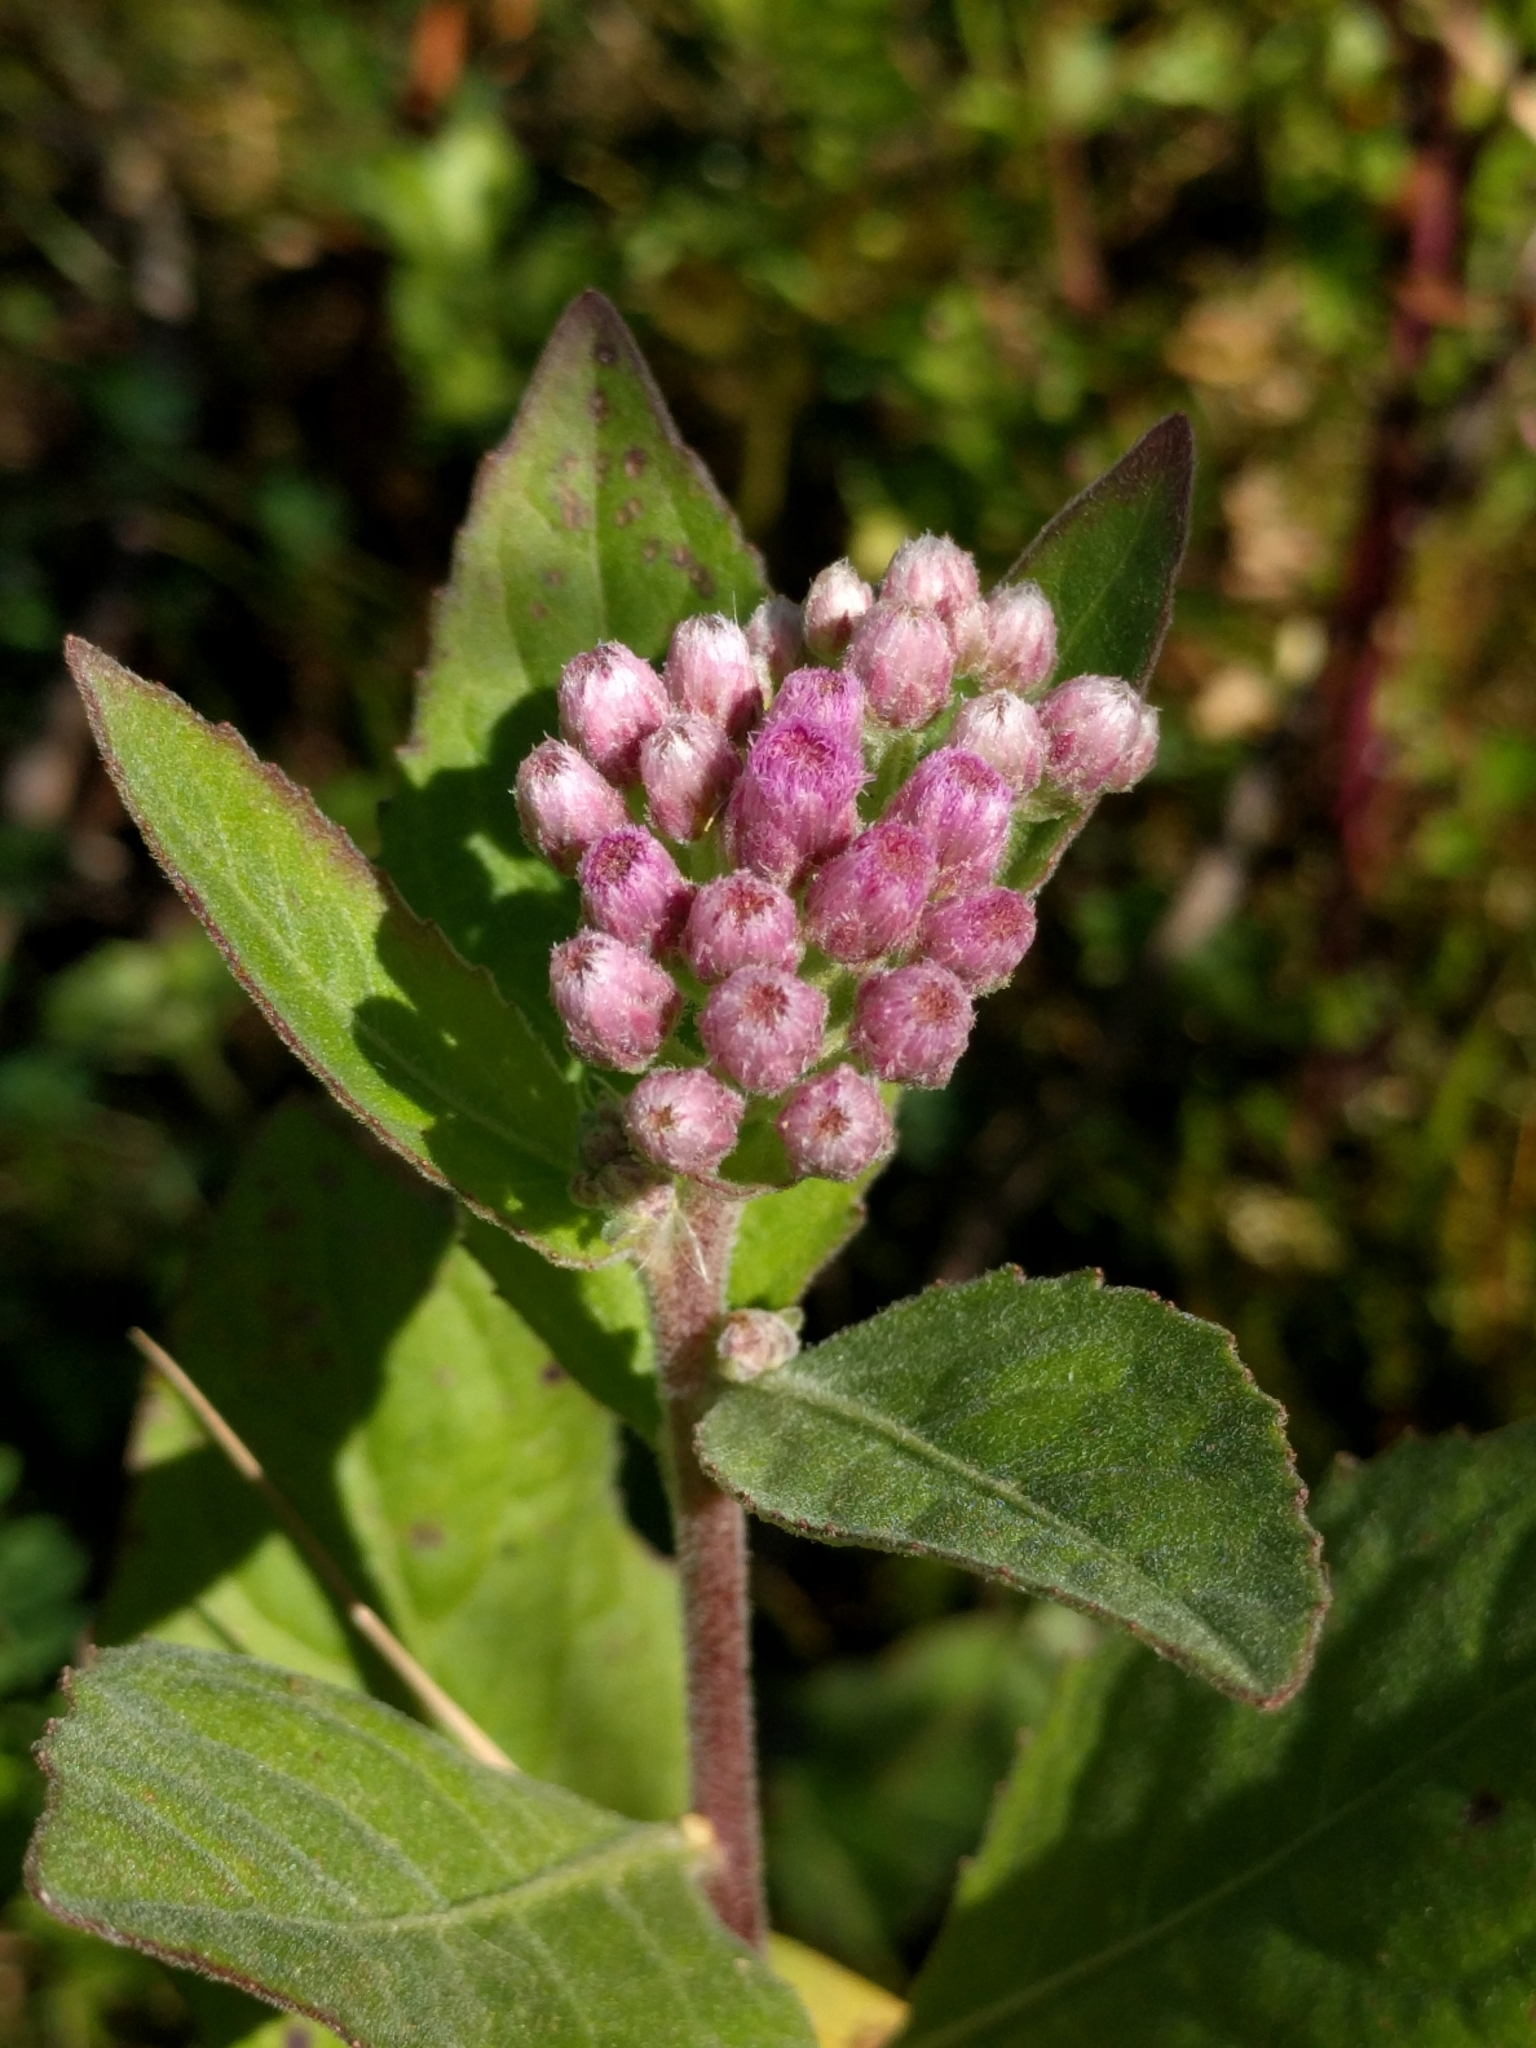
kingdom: Plantae
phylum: Tracheophyta
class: Magnoliopsida
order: Asterales
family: Asteraceae
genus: Pluchea
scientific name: Pluchea odorata
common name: Saltmarsh fleabane
